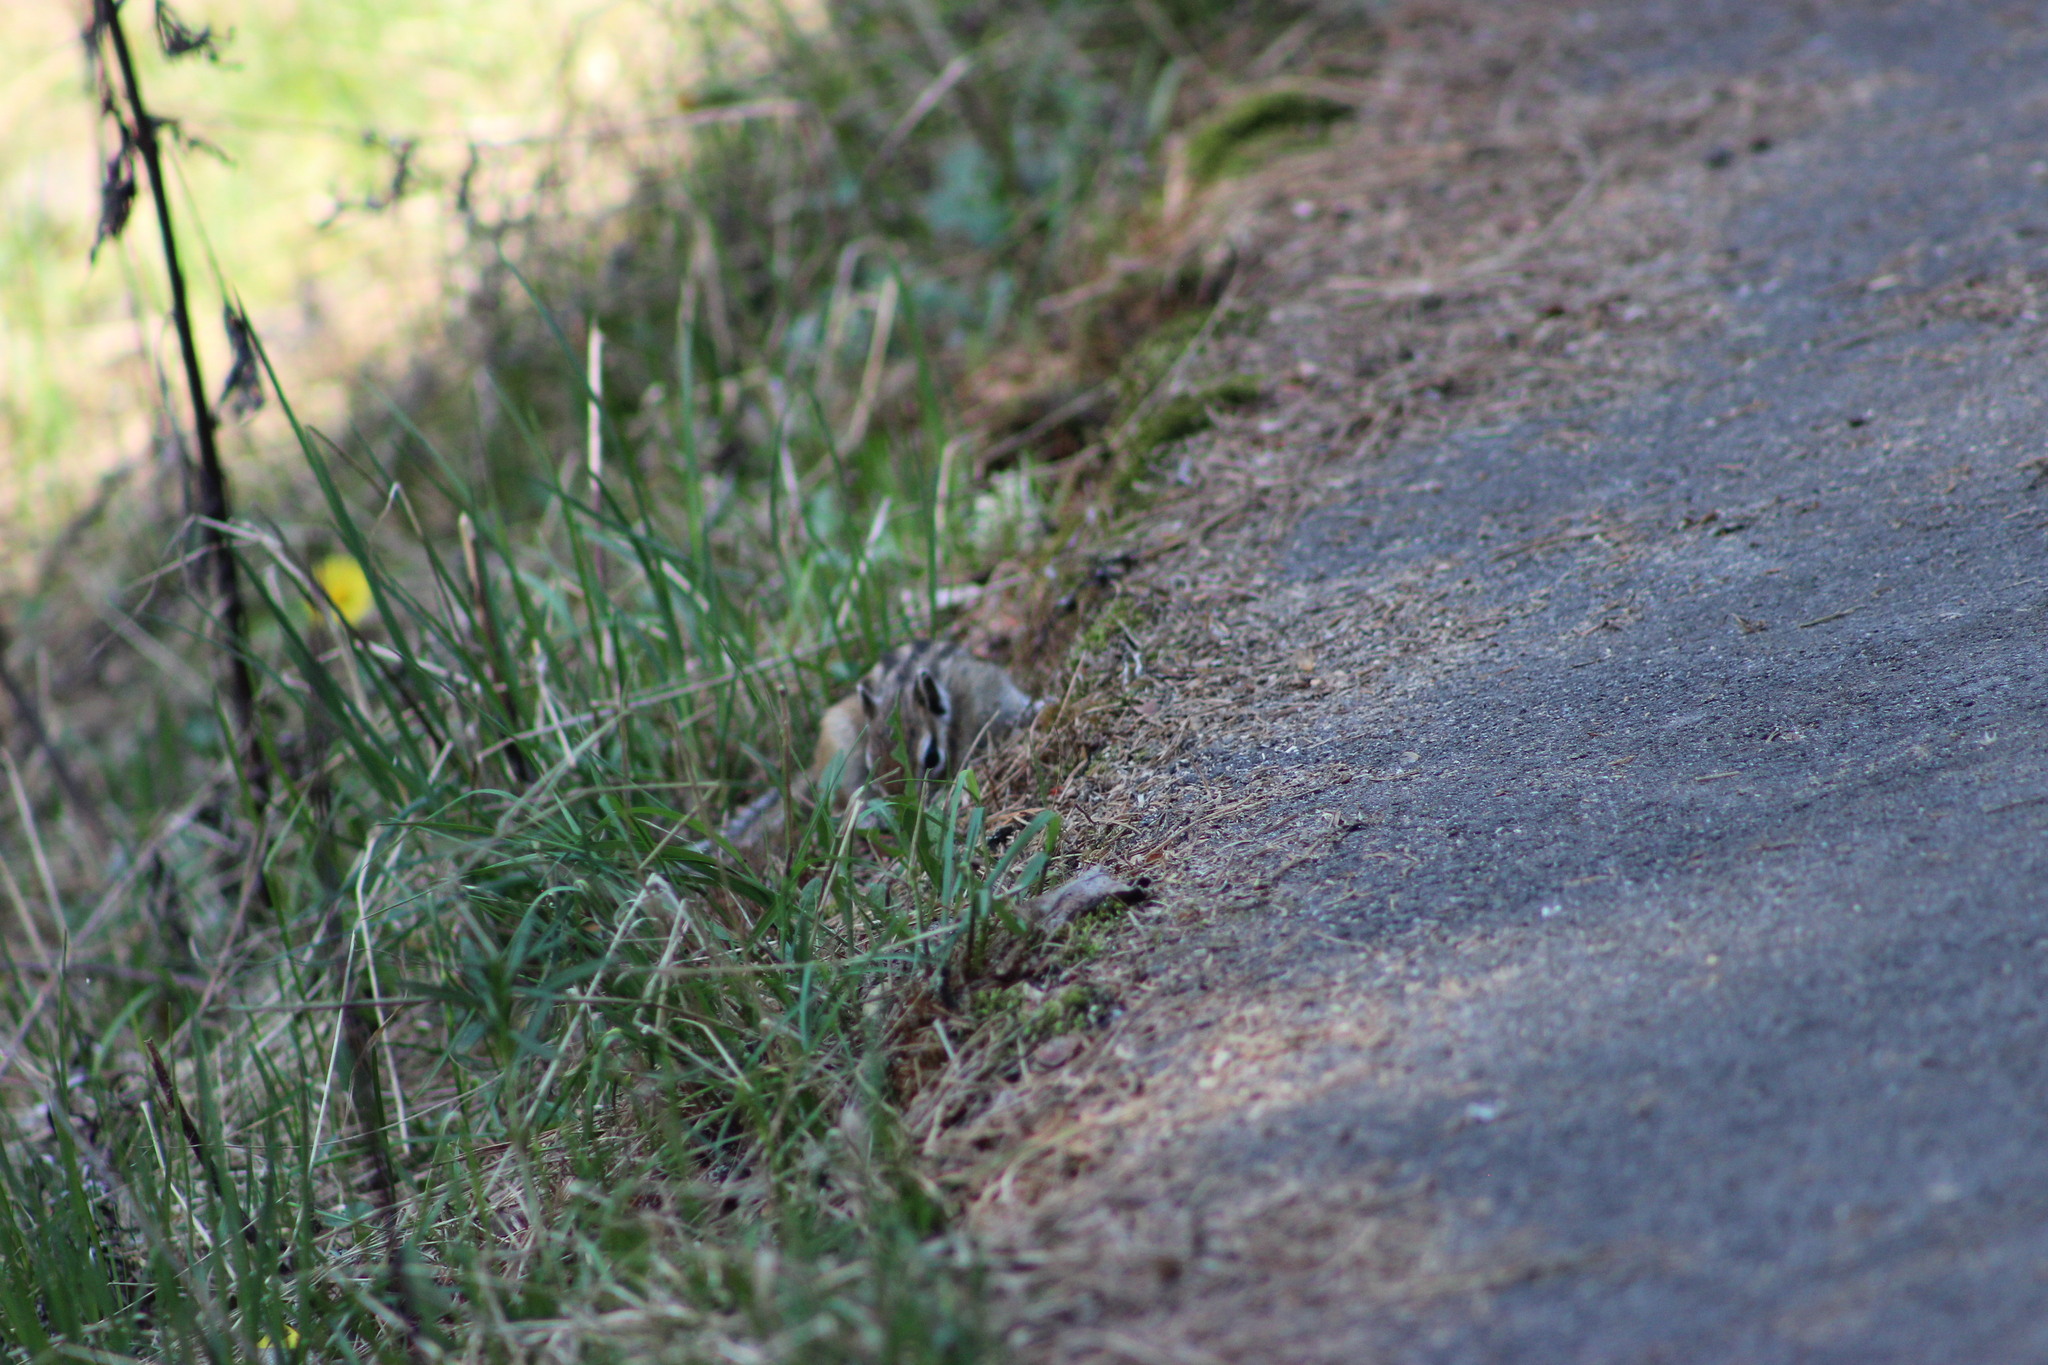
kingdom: Animalia
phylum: Chordata
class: Mammalia
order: Rodentia
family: Sciuridae
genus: Tamias
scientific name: Tamias sibiricus
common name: Siberian chipmunk
